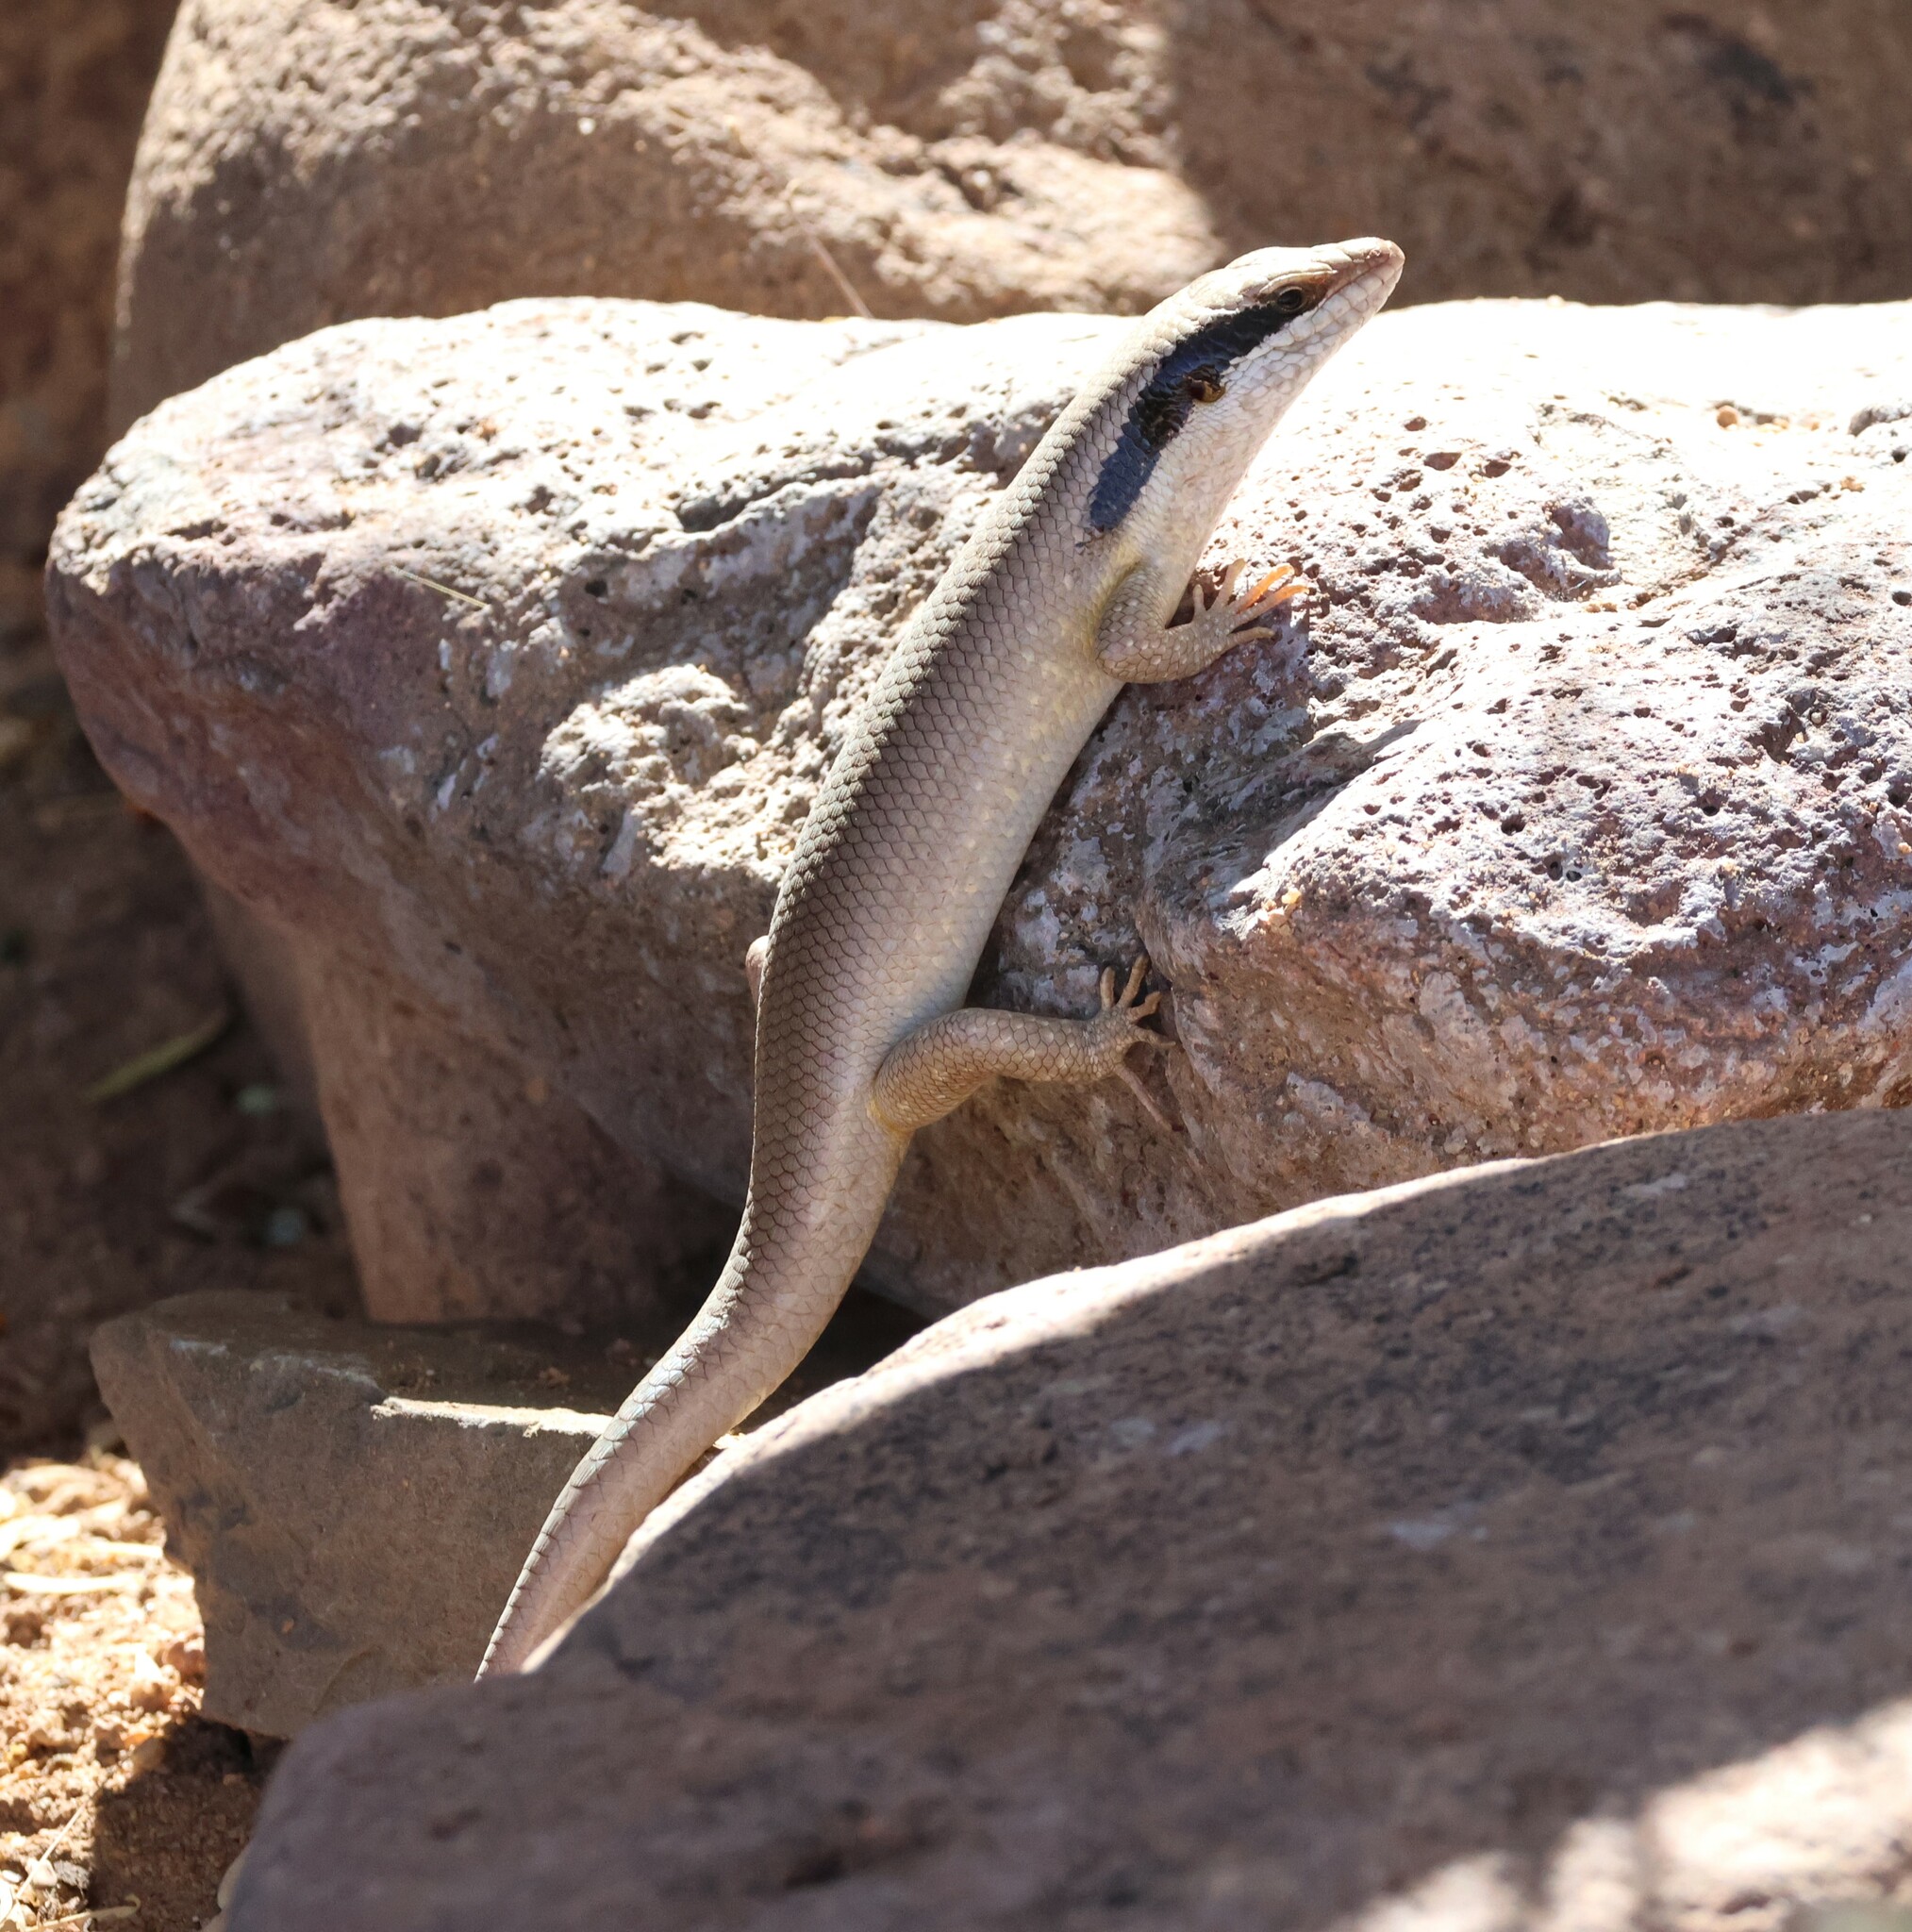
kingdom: Animalia
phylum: Chordata
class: Squamata
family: Scincidae
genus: Trachylepis
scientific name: Trachylepis binotata
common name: Bocage's mabuya
